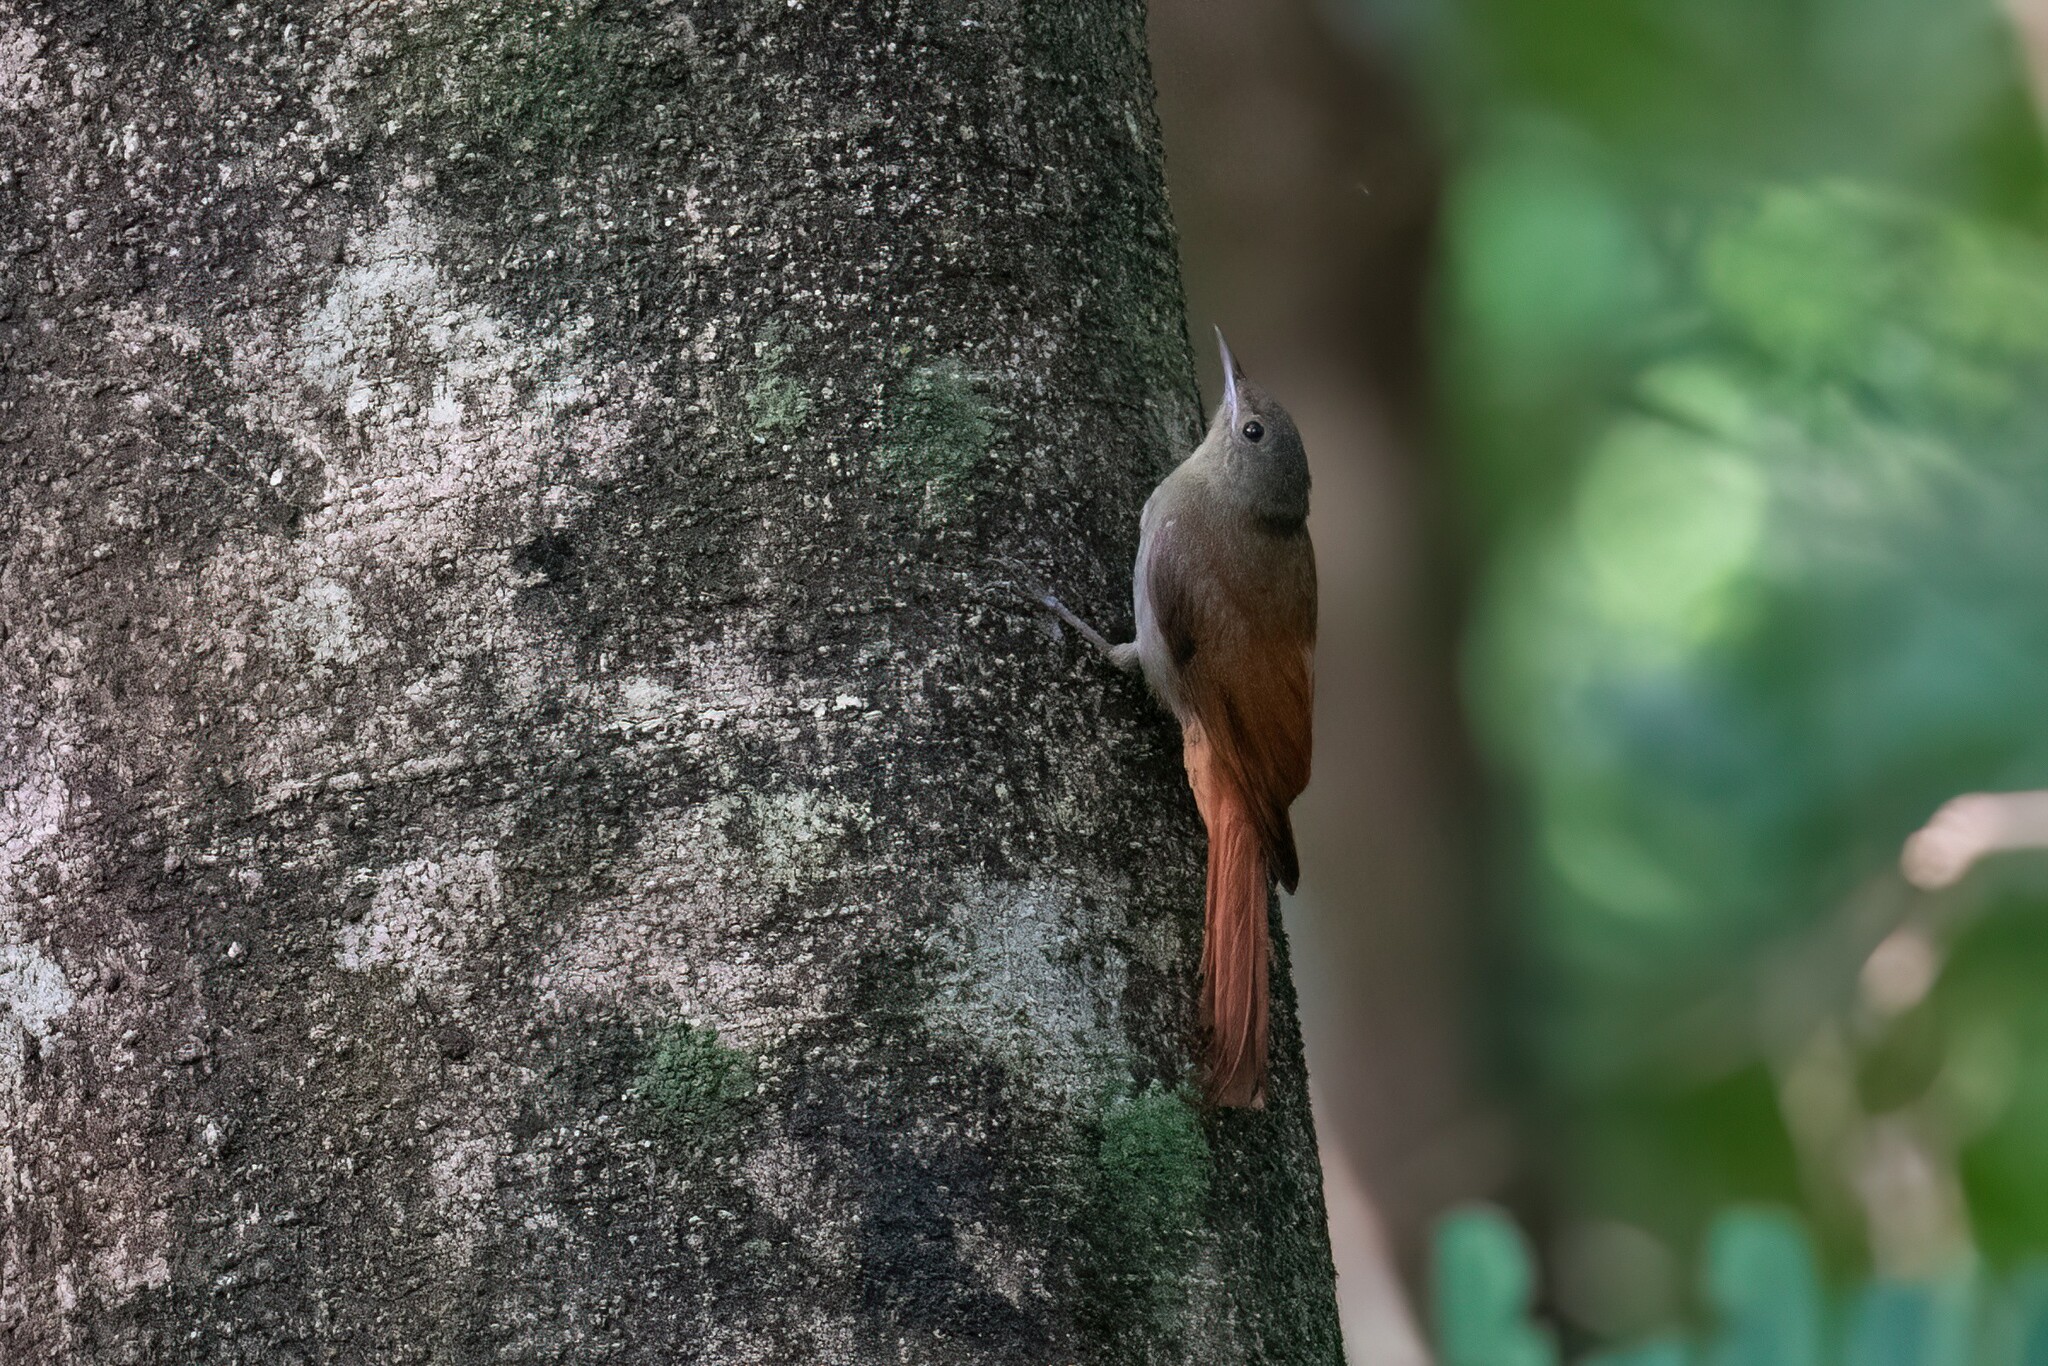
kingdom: Animalia
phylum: Chordata
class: Aves
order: Passeriformes
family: Furnariidae
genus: Sittasomus
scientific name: Sittasomus griseicapillus
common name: Olivaceous woodcreeper
